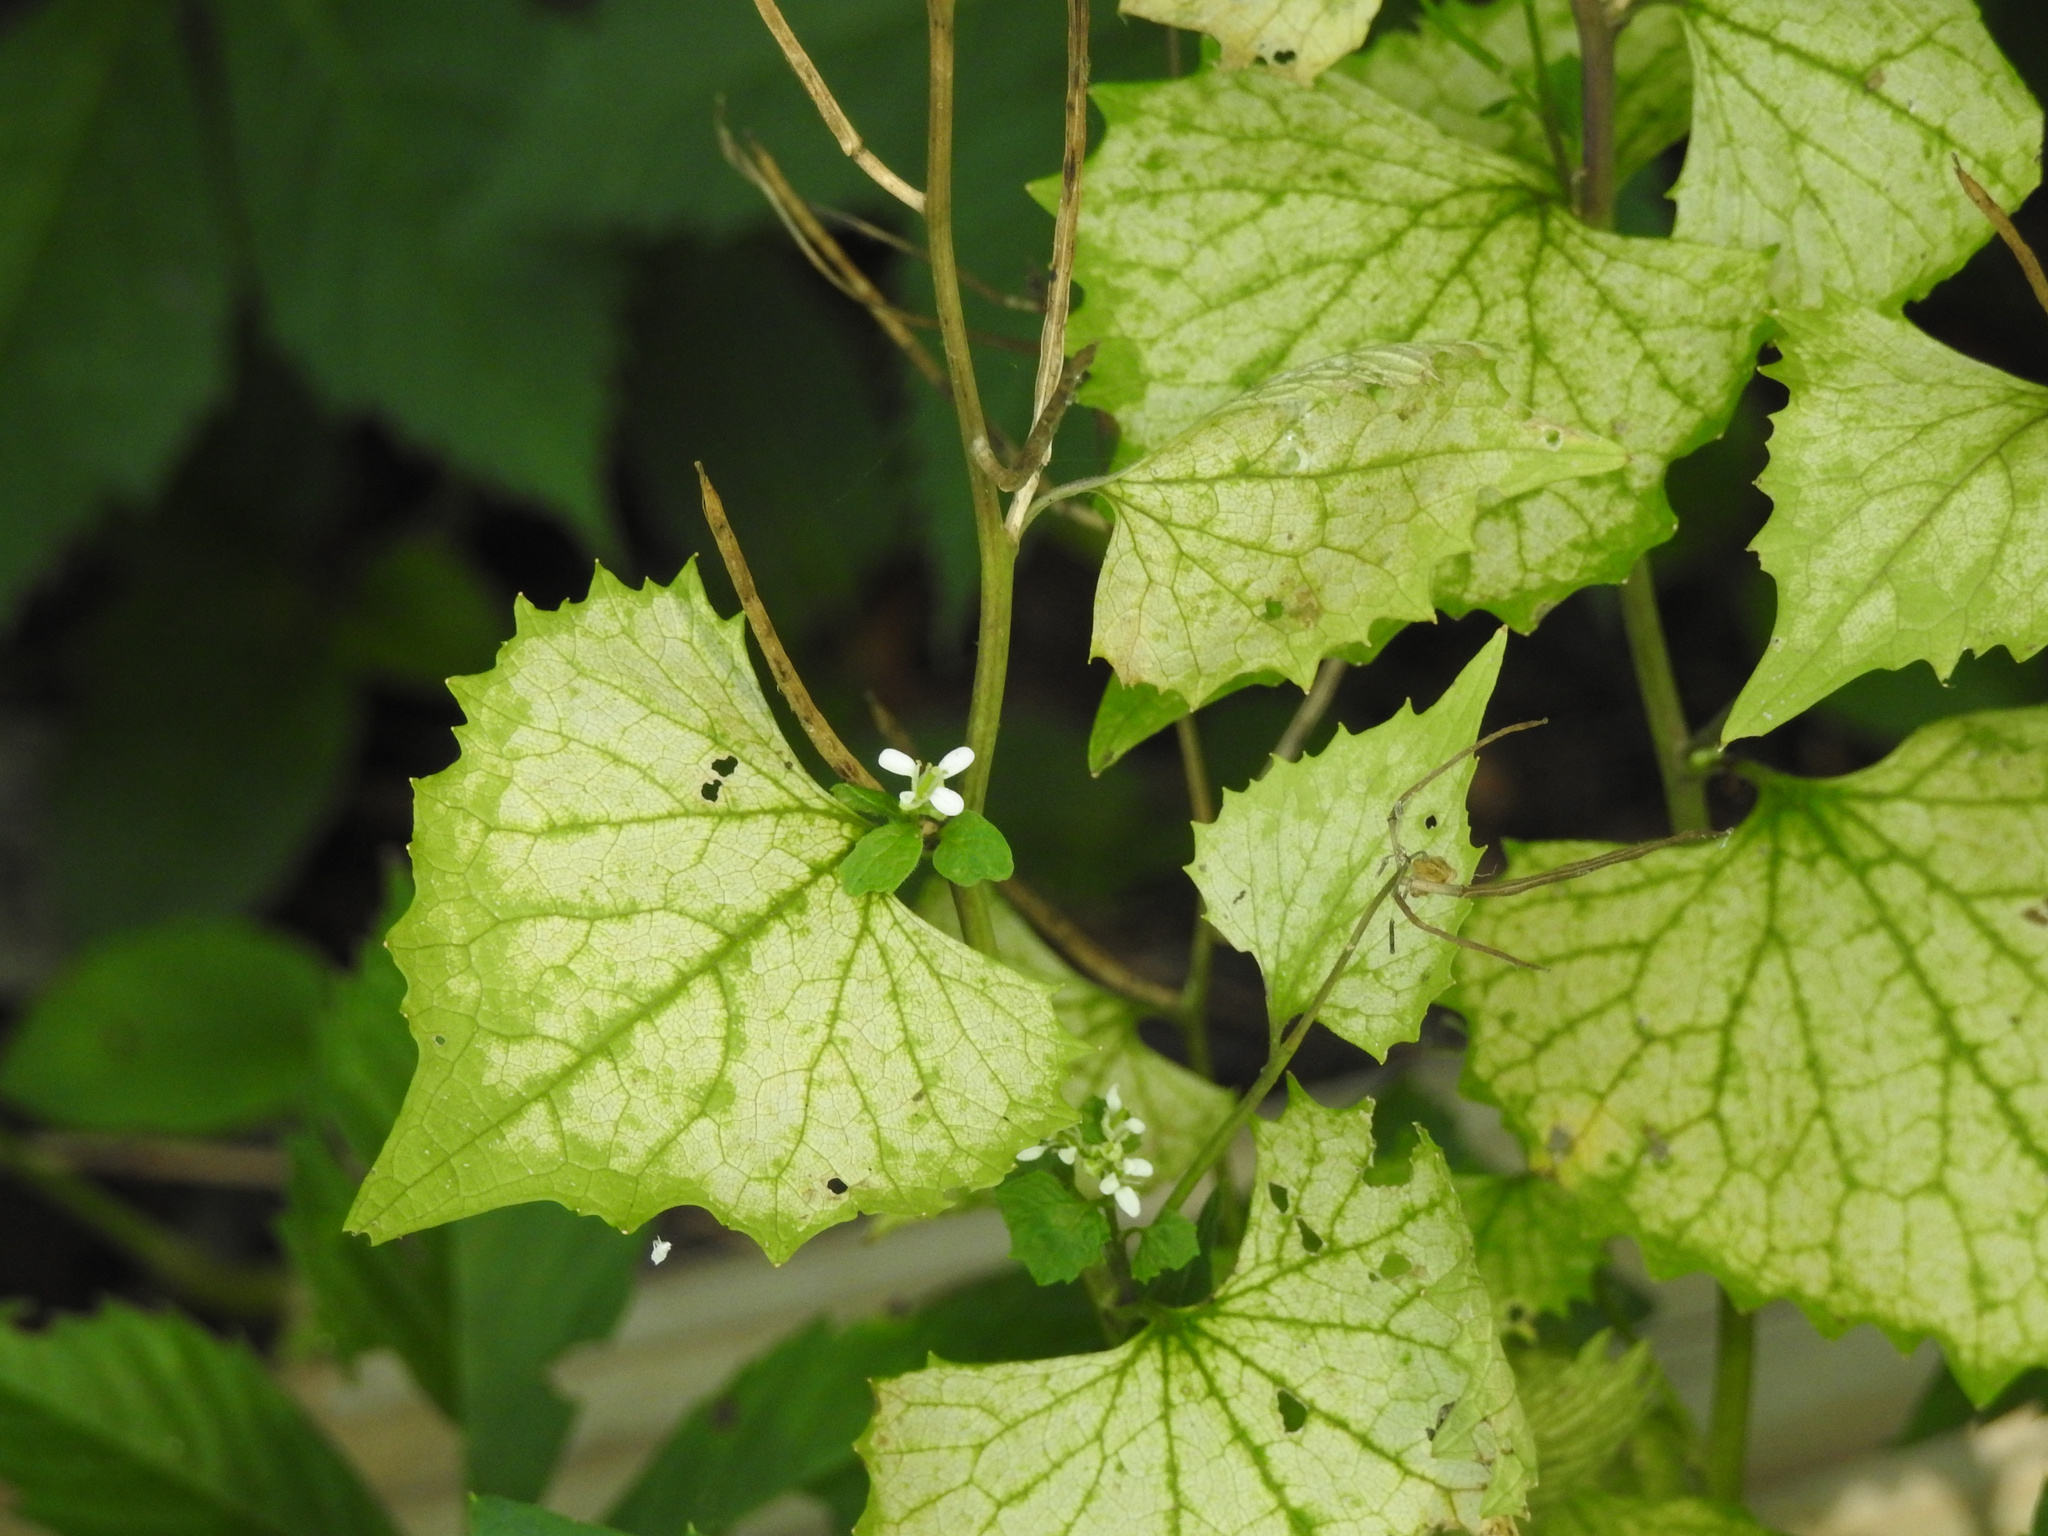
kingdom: Plantae
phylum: Tracheophyta
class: Magnoliopsida
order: Brassicales
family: Brassicaceae
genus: Alliaria
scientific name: Alliaria petiolata
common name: Garlic mustard
